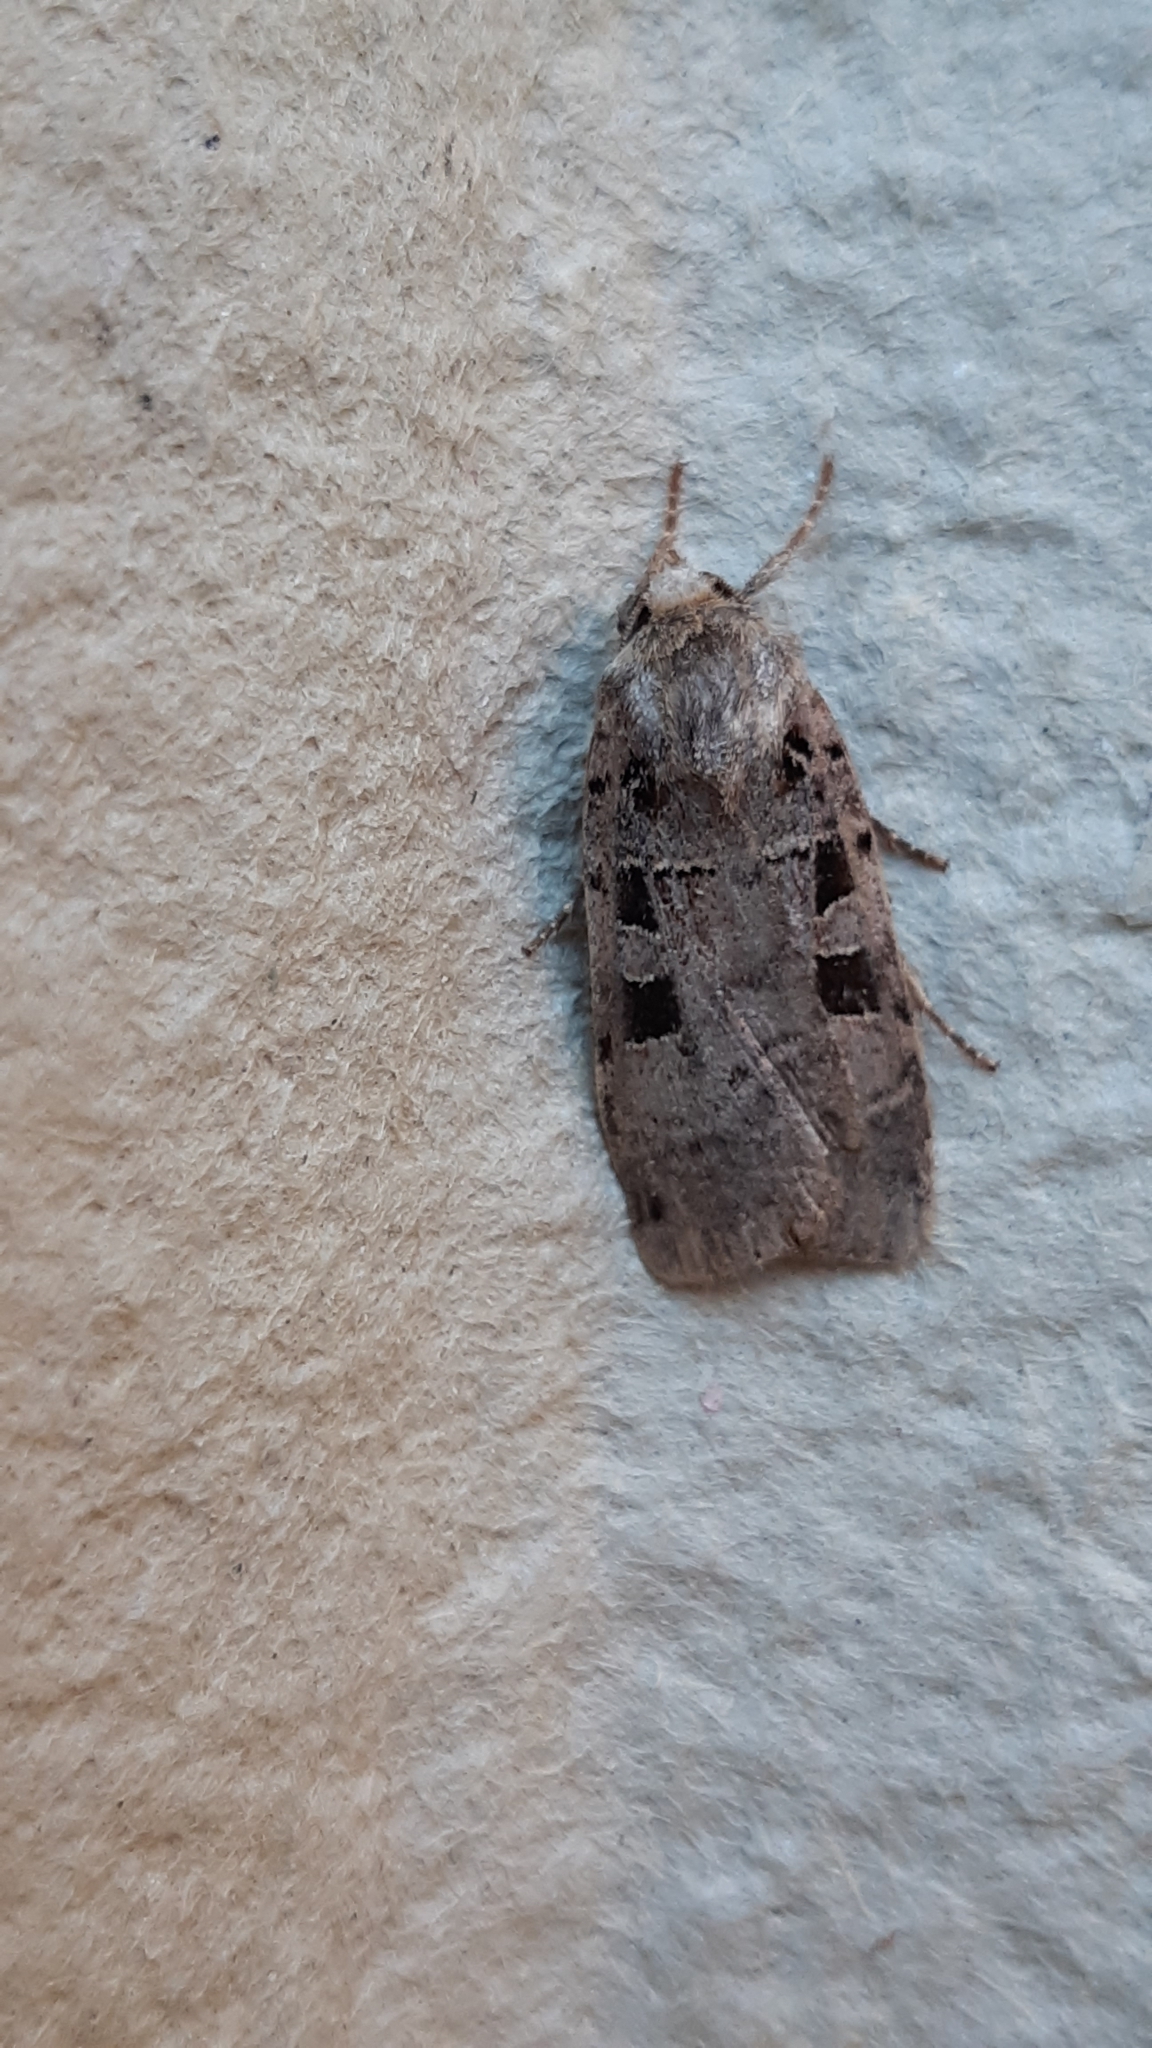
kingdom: Animalia
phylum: Arthropoda
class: Insecta
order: Lepidoptera
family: Noctuidae
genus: Xestia
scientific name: Xestia triangulum
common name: Double square-spot
